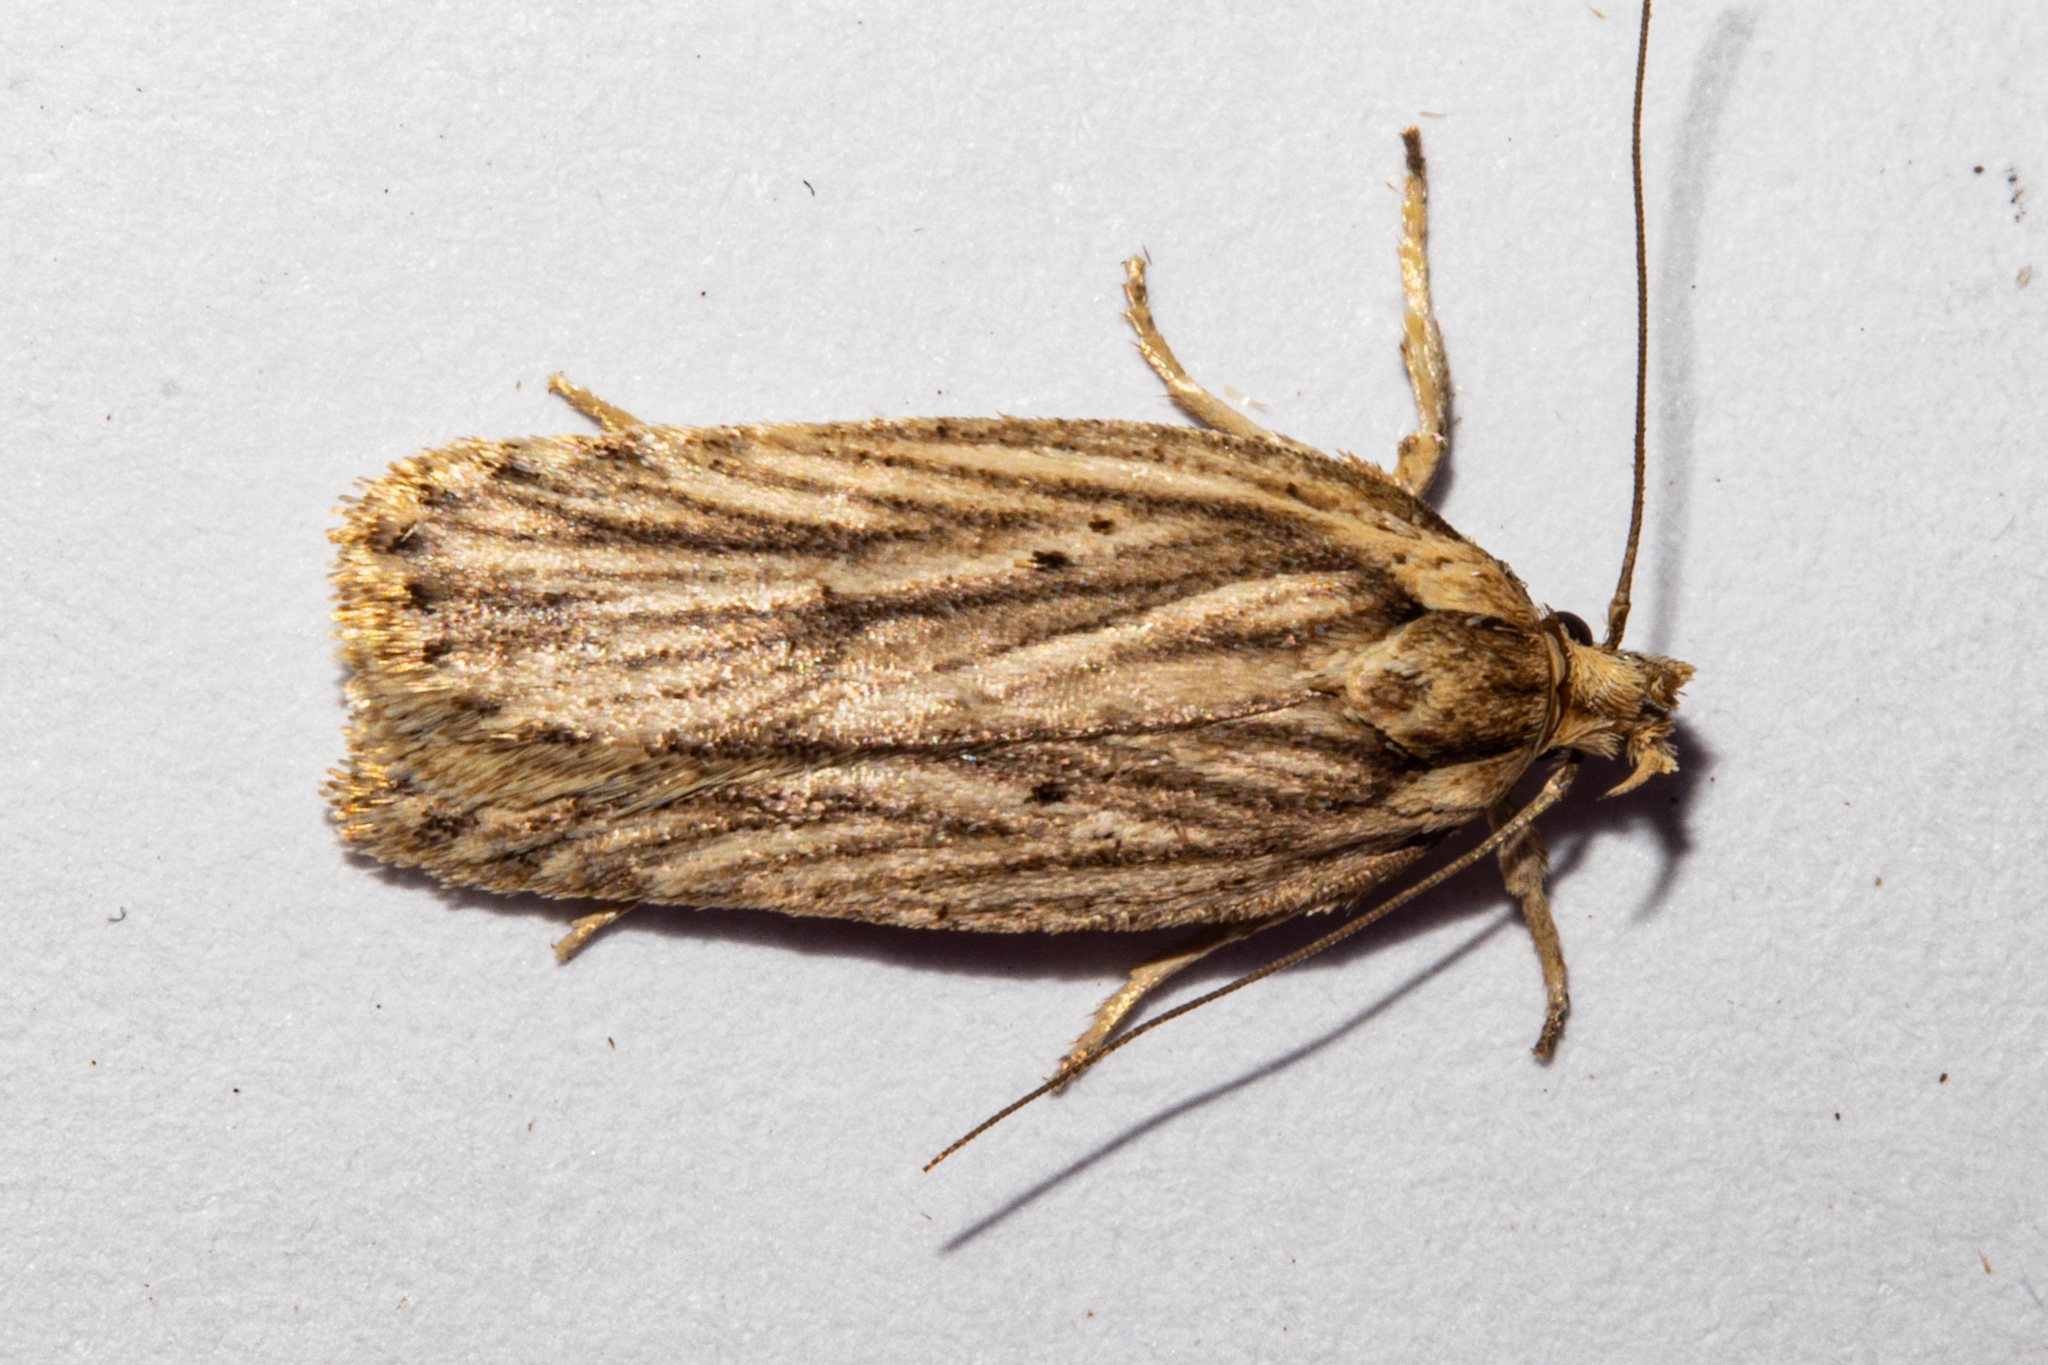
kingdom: Animalia
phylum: Arthropoda
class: Insecta
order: Lepidoptera
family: Depressariidae
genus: Agonopterix
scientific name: Agonopterix
